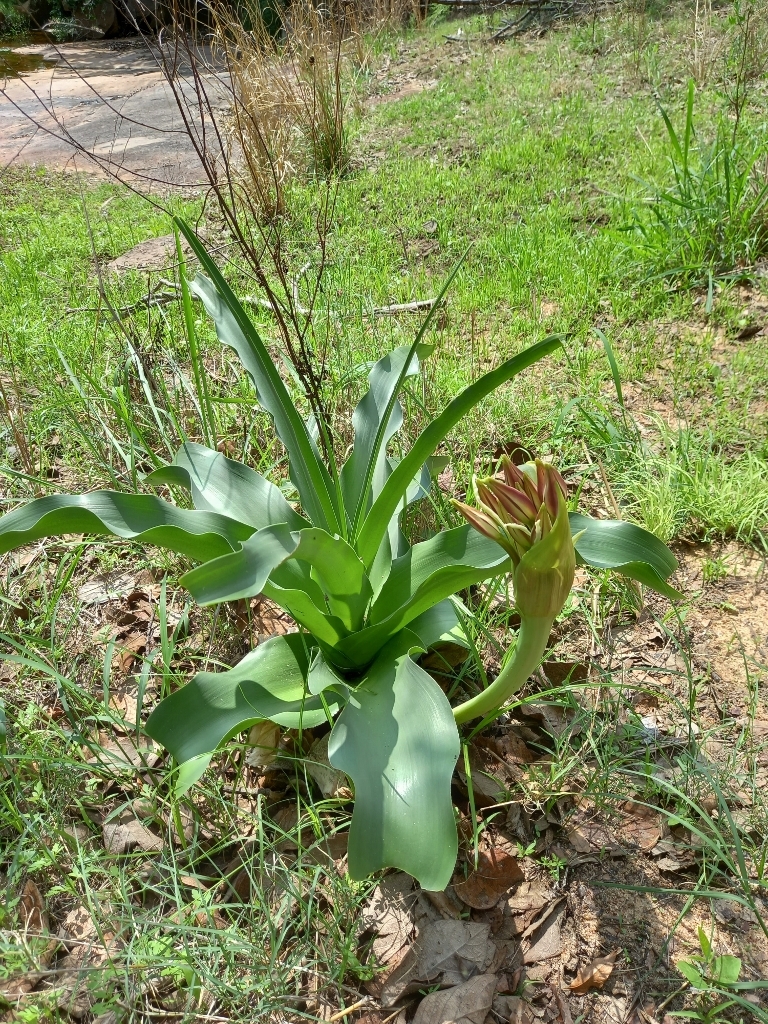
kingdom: Plantae
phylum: Tracheophyta
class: Liliopsida
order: Asparagales
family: Amaryllidaceae
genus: Crinum
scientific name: Crinum macowanii
